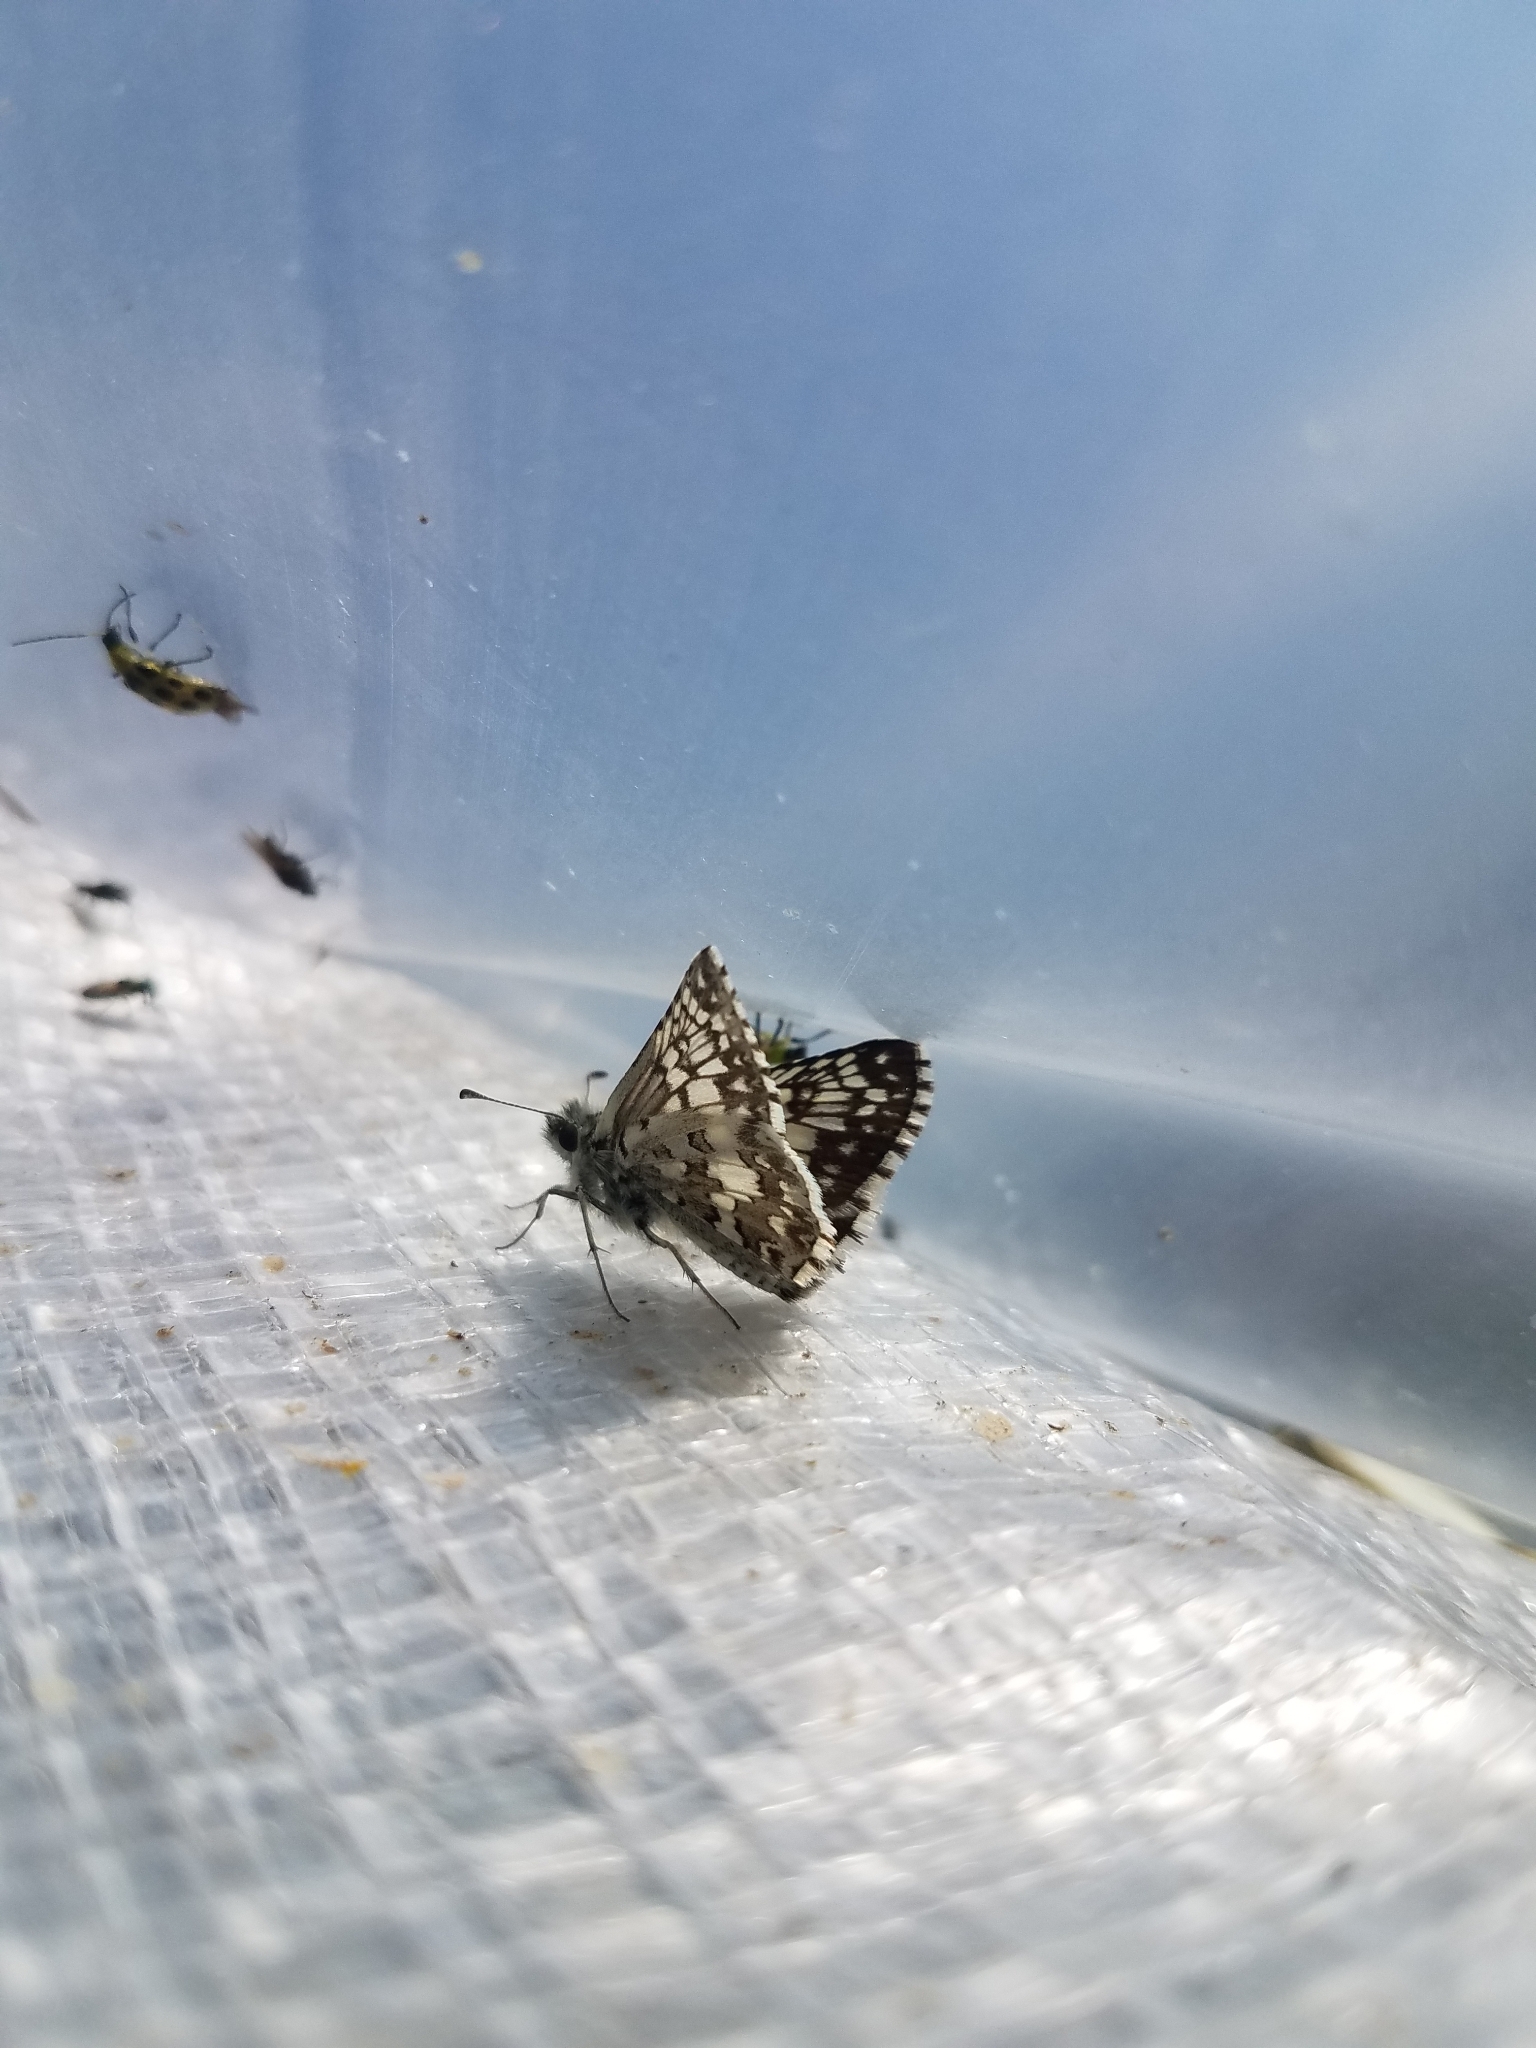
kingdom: Animalia
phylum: Arthropoda
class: Insecta
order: Lepidoptera
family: Hesperiidae
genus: Burnsius
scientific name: Burnsius communis
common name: Common checkered-skipper
